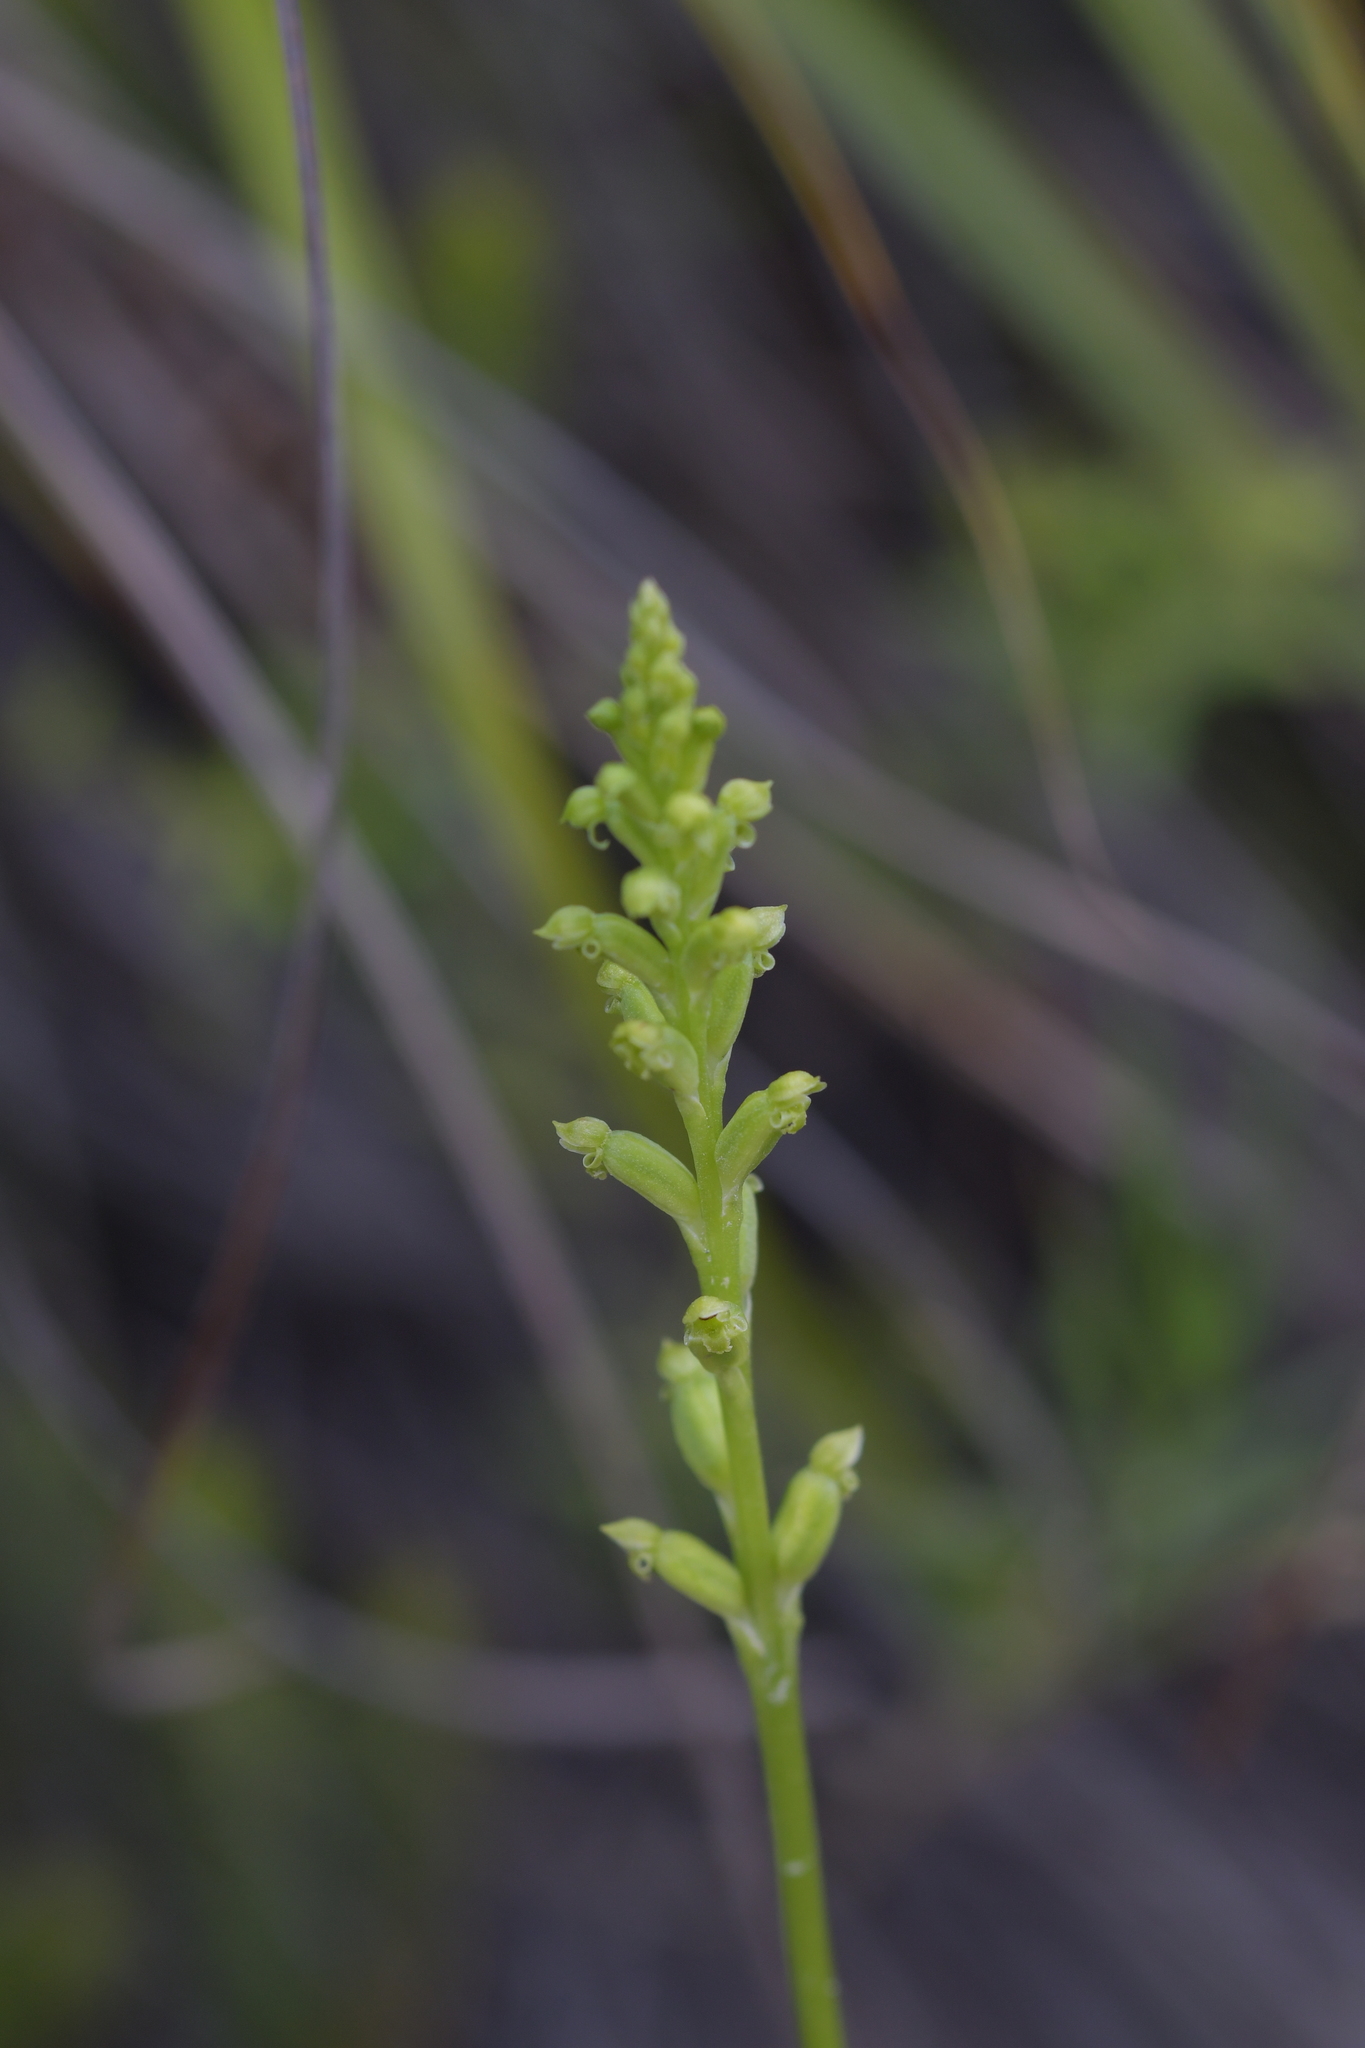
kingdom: Plantae
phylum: Tracheophyta
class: Liliopsida
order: Asparagales
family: Orchidaceae
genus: Microtis
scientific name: Microtis unifolia
